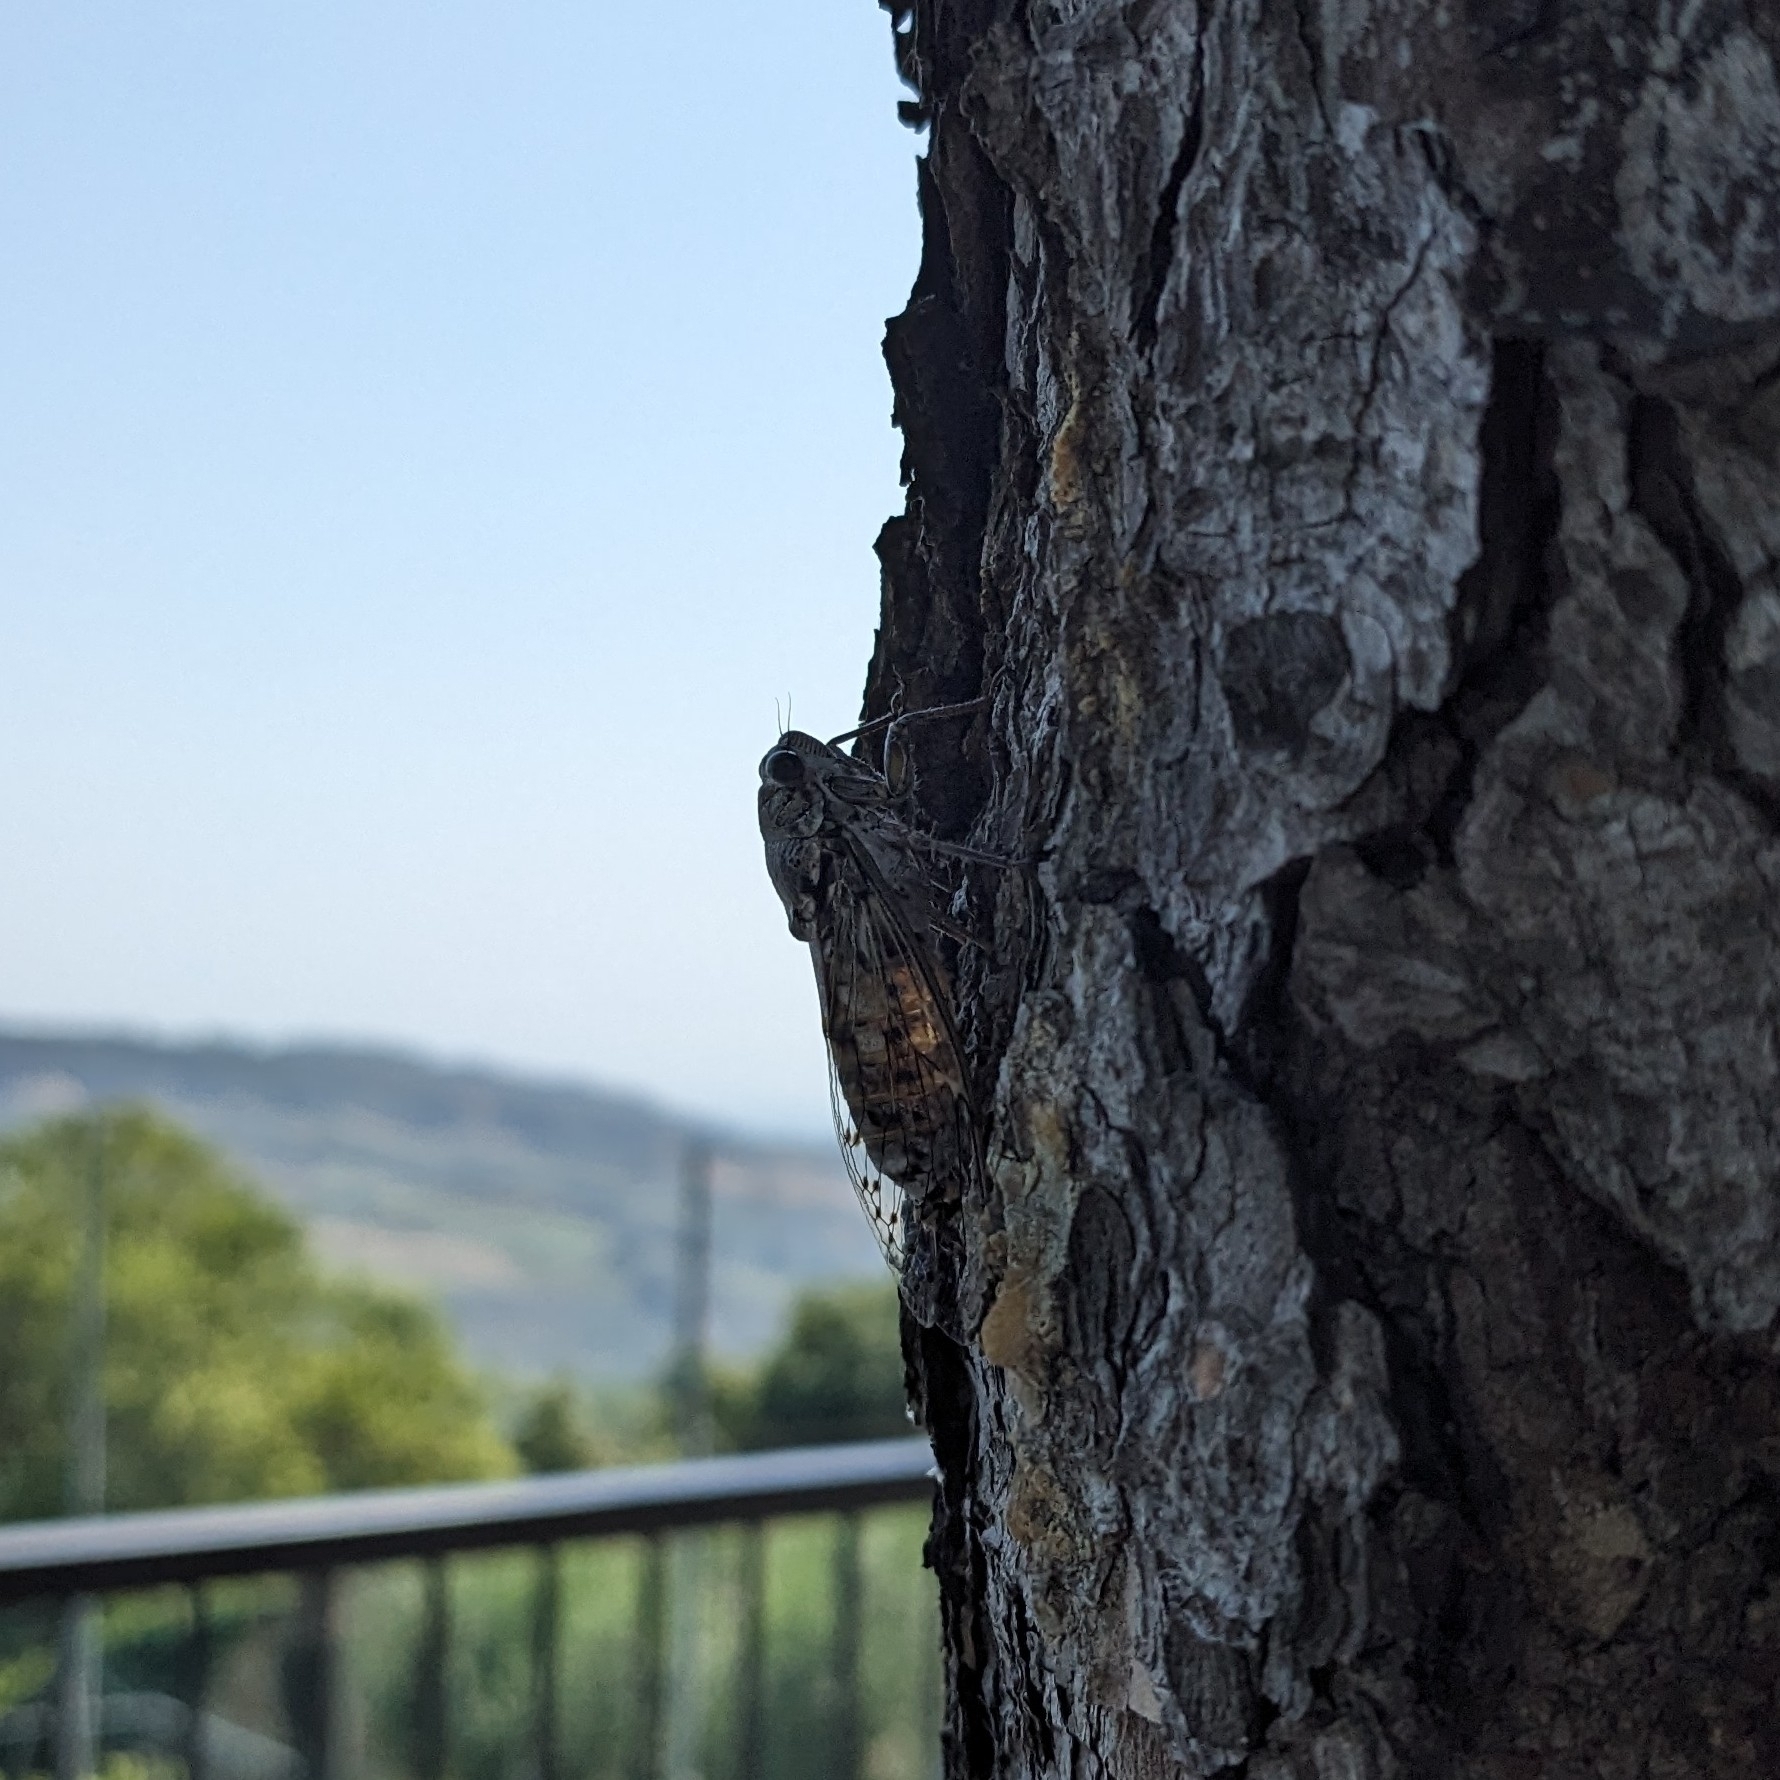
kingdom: Animalia
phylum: Arthropoda
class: Insecta
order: Hemiptera
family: Cicadidae
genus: Cicada
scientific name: Cicada orni
